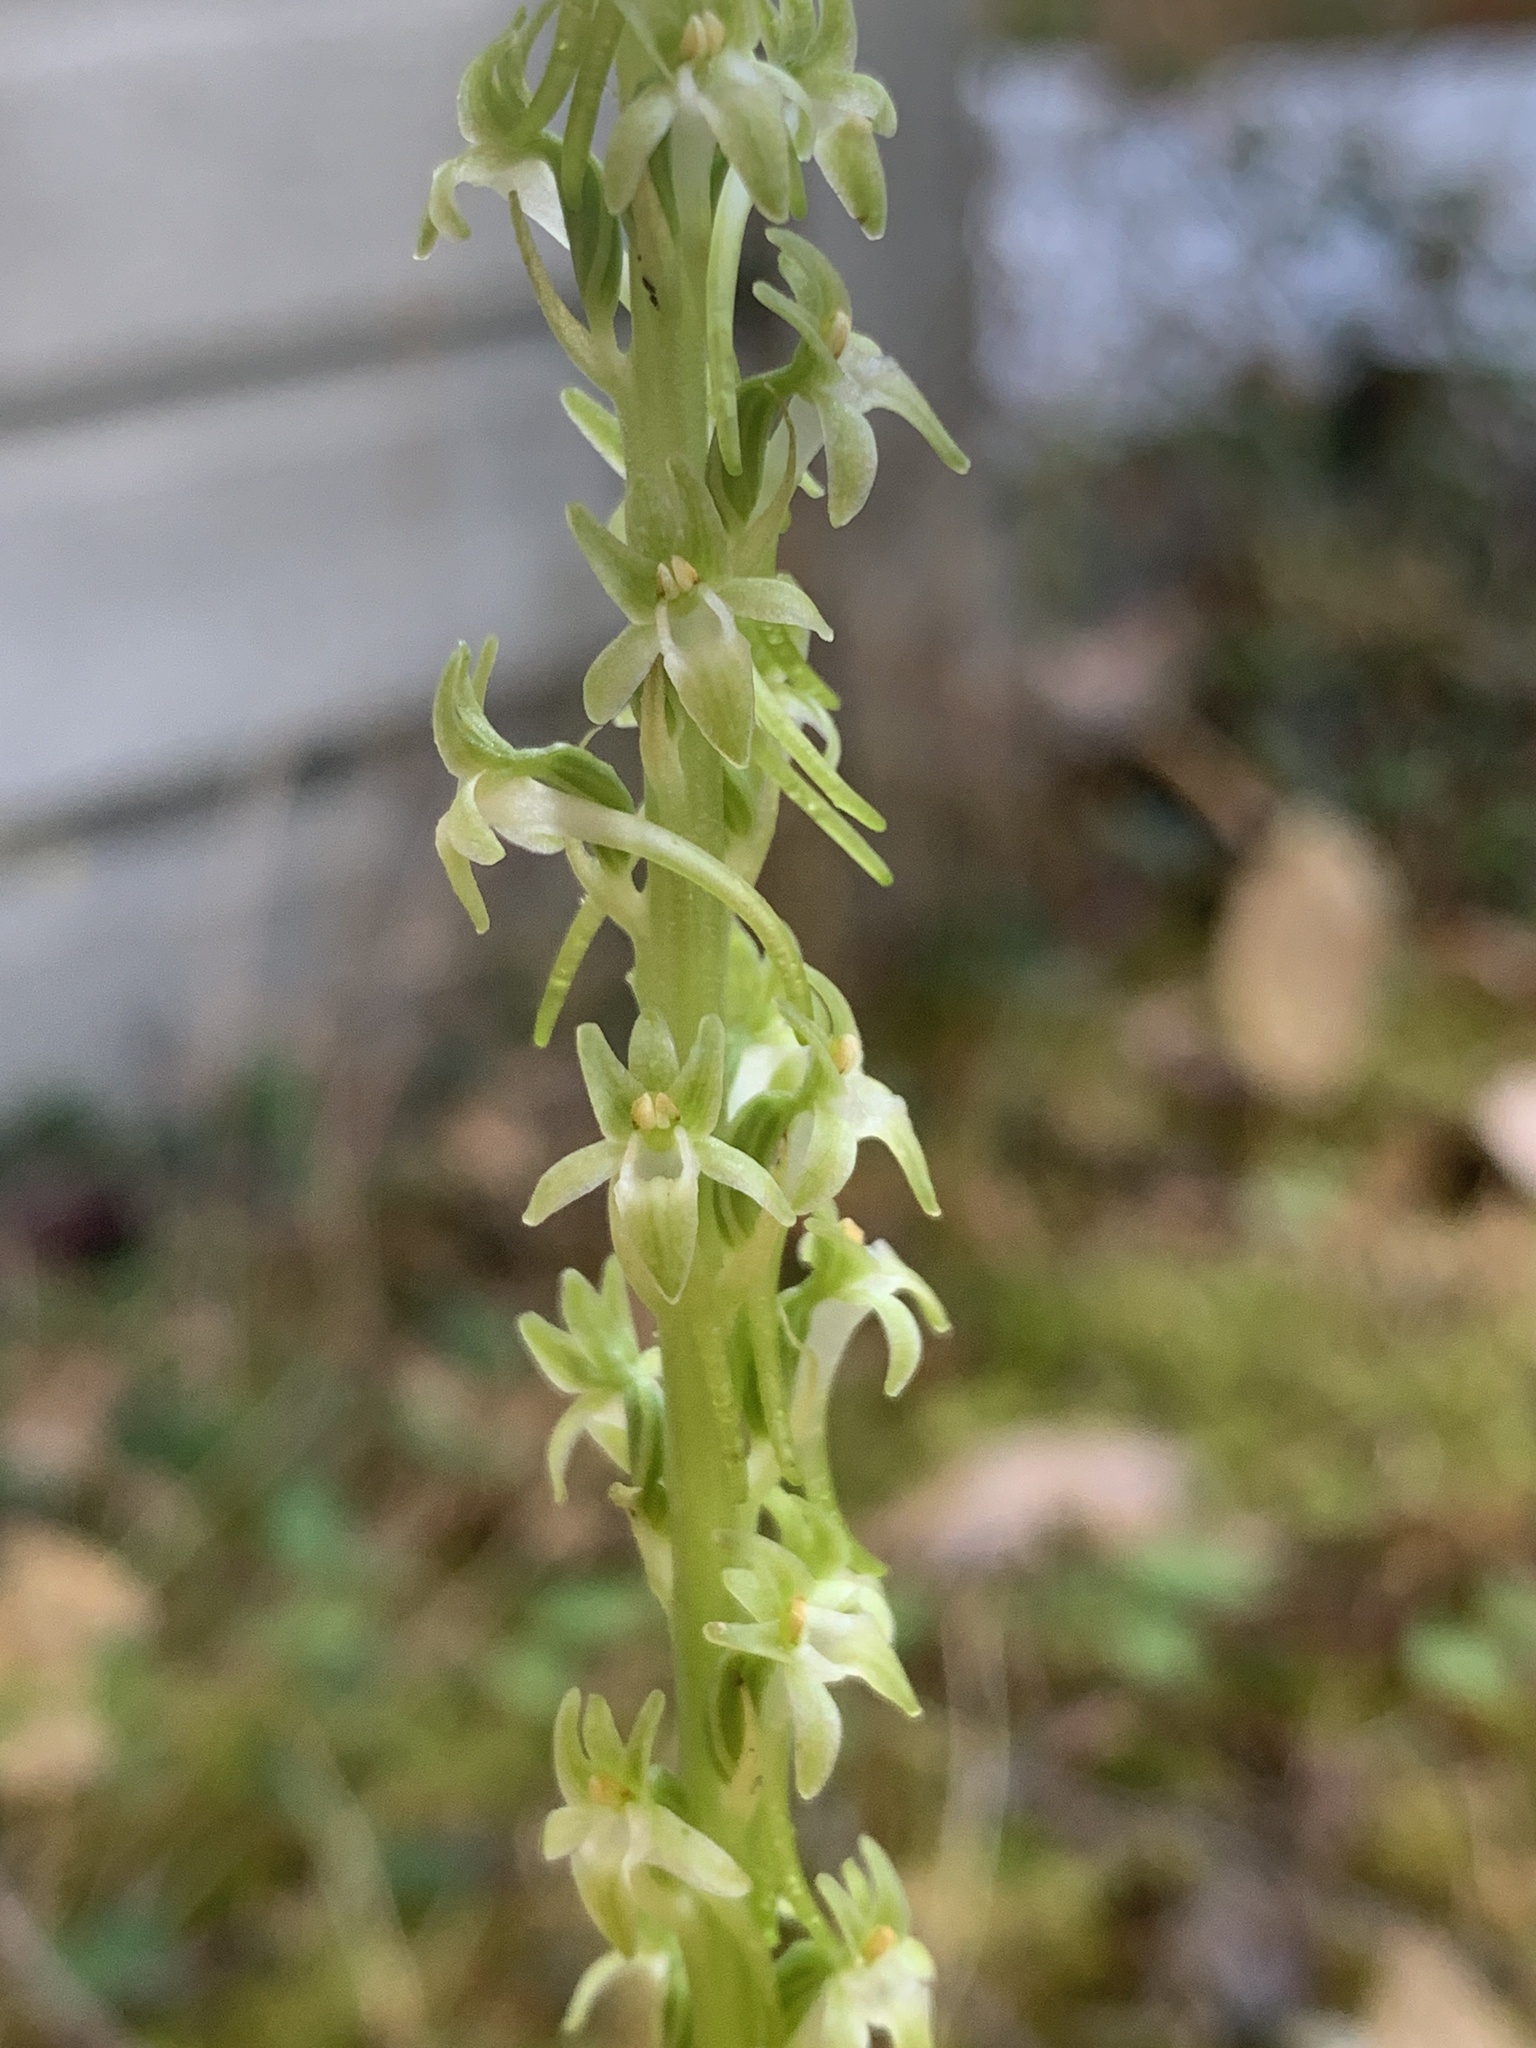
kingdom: Plantae
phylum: Tracheophyta
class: Liliopsida
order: Asparagales
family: Orchidaceae
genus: Platanthera
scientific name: Platanthera elongata
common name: Dense-flowered rein orchid
